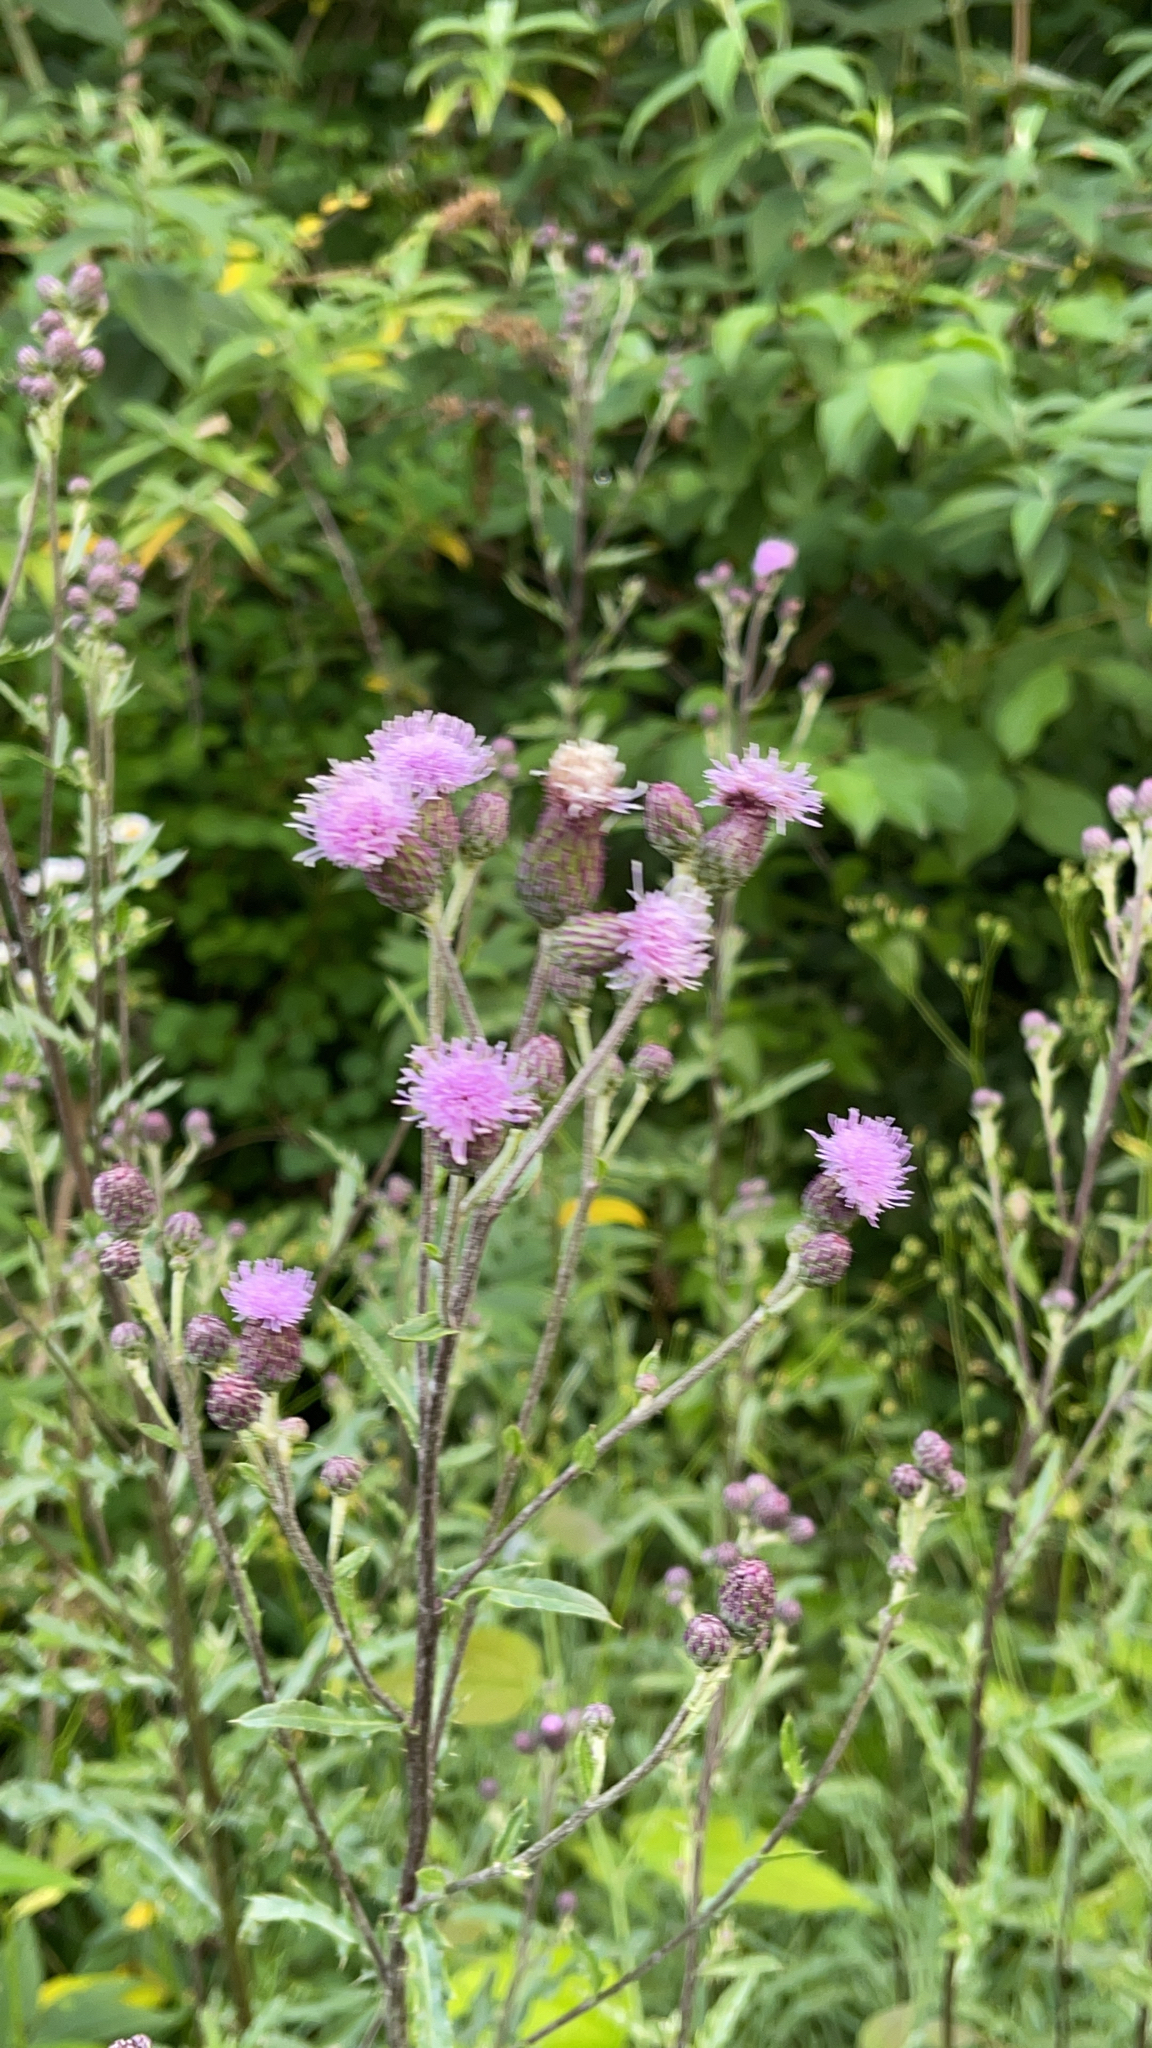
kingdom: Plantae
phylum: Tracheophyta
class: Magnoliopsida
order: Asterales
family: Asteraceae
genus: Cirsium
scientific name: Cirsium arvense
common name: Creeping thistle
